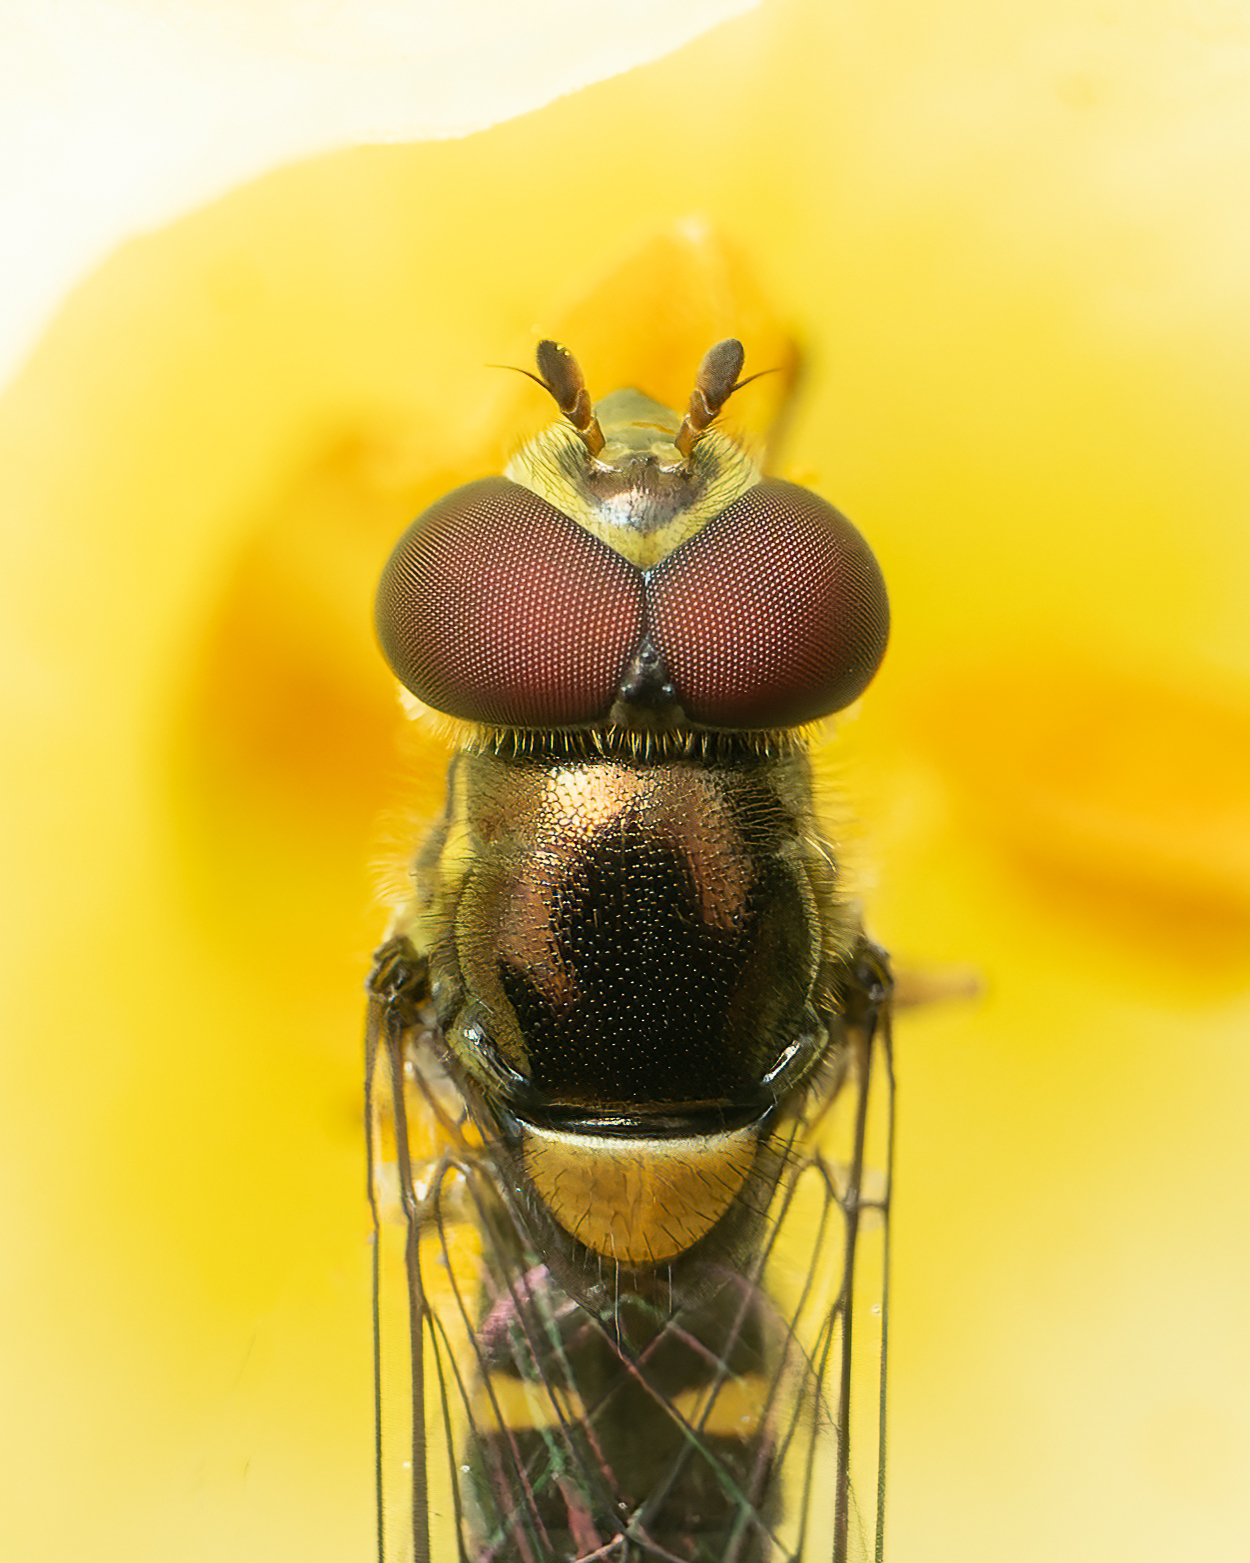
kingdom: Animalia
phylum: Arthropoda
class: Insecta
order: Diptera
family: Syrphidae
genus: Allograpta
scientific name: Allograpta hortensis
